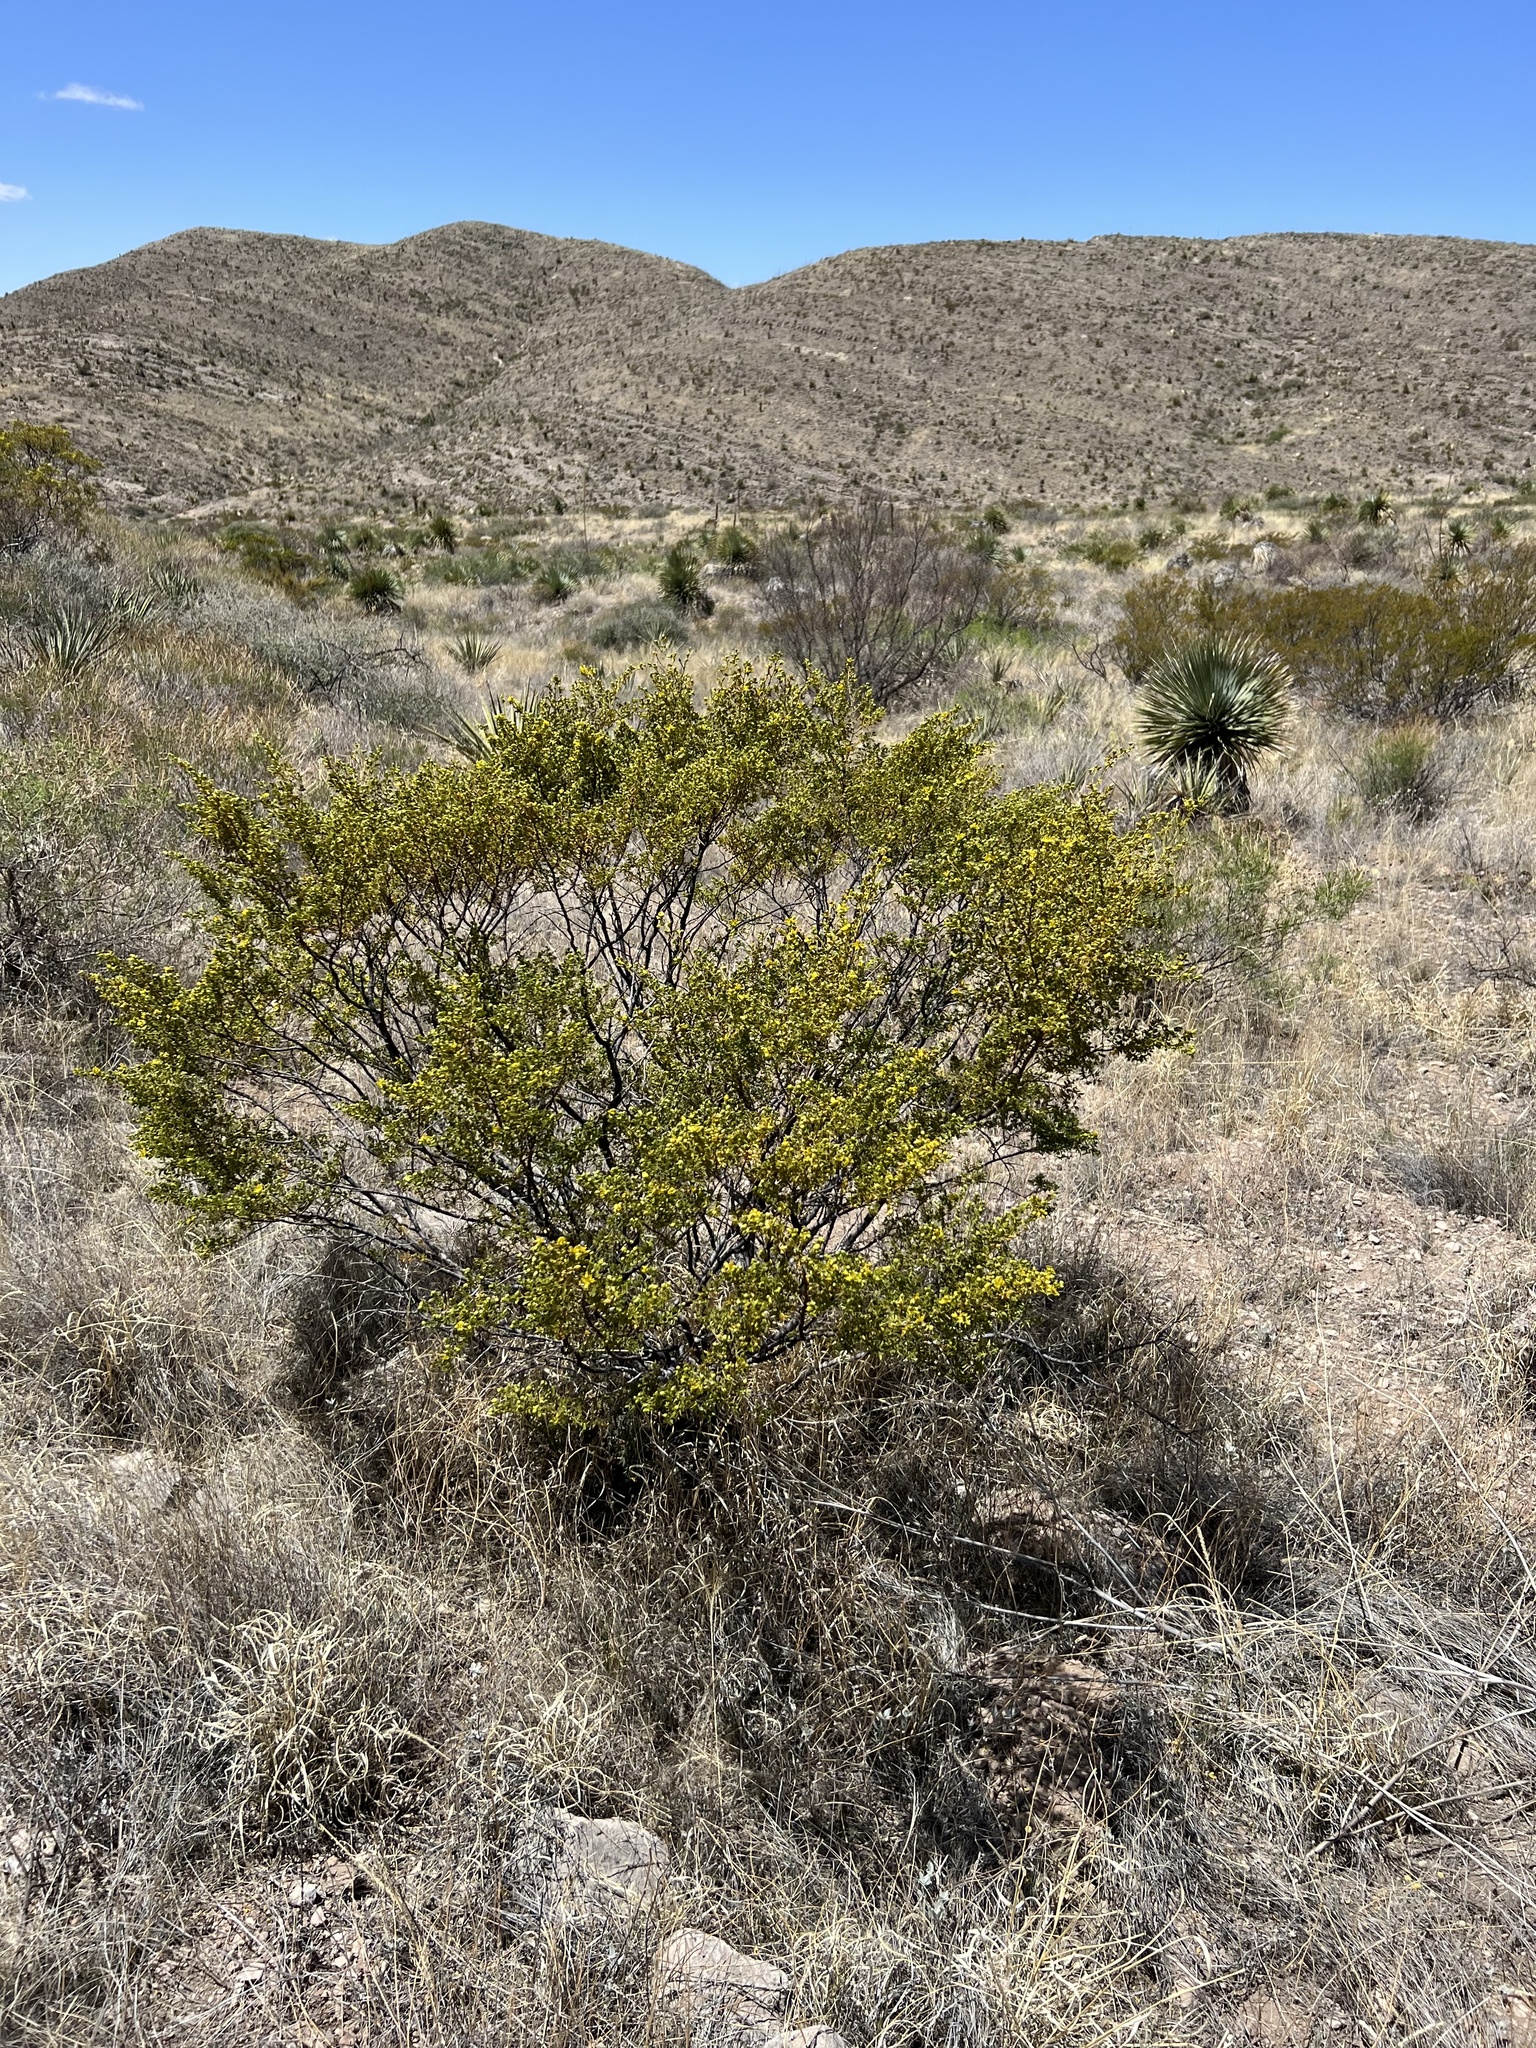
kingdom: Plantae
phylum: Tracheophyta
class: Magnoliopsida
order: Zygophyllales
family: Zygophyllaceae
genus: Larrea
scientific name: Larrea tridentata
